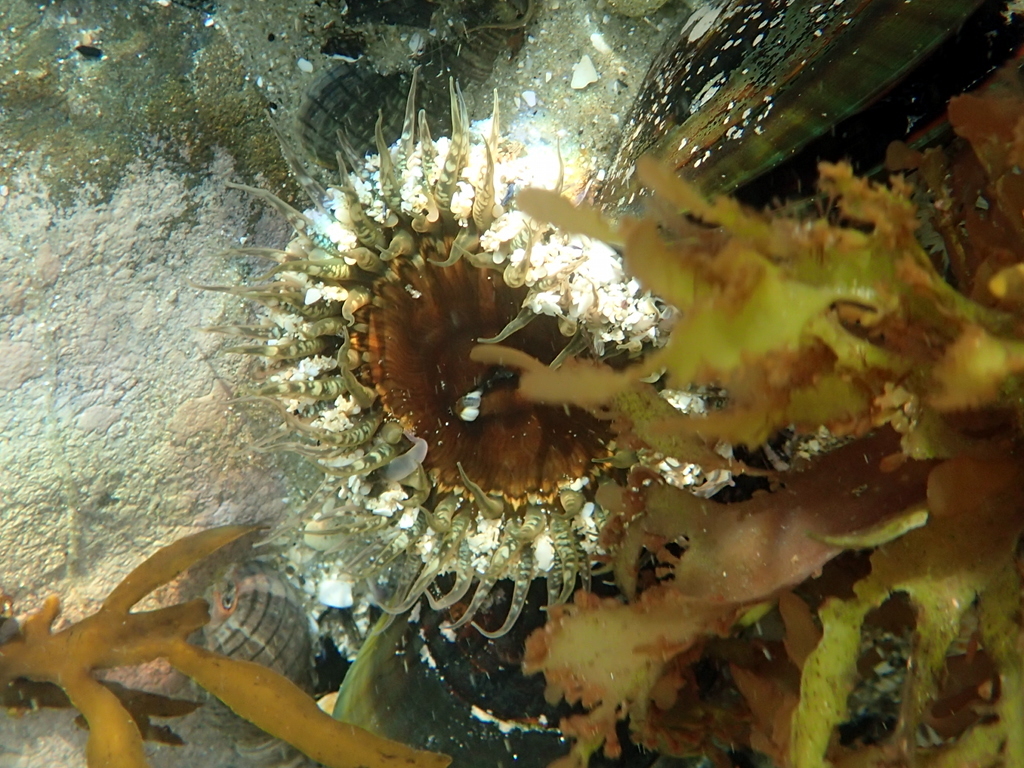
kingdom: Animalia
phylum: Cnidaria
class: Anthozoa
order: Actiniaria
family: Actiniidae
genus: Oulactis
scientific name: Oulactis muscosa
